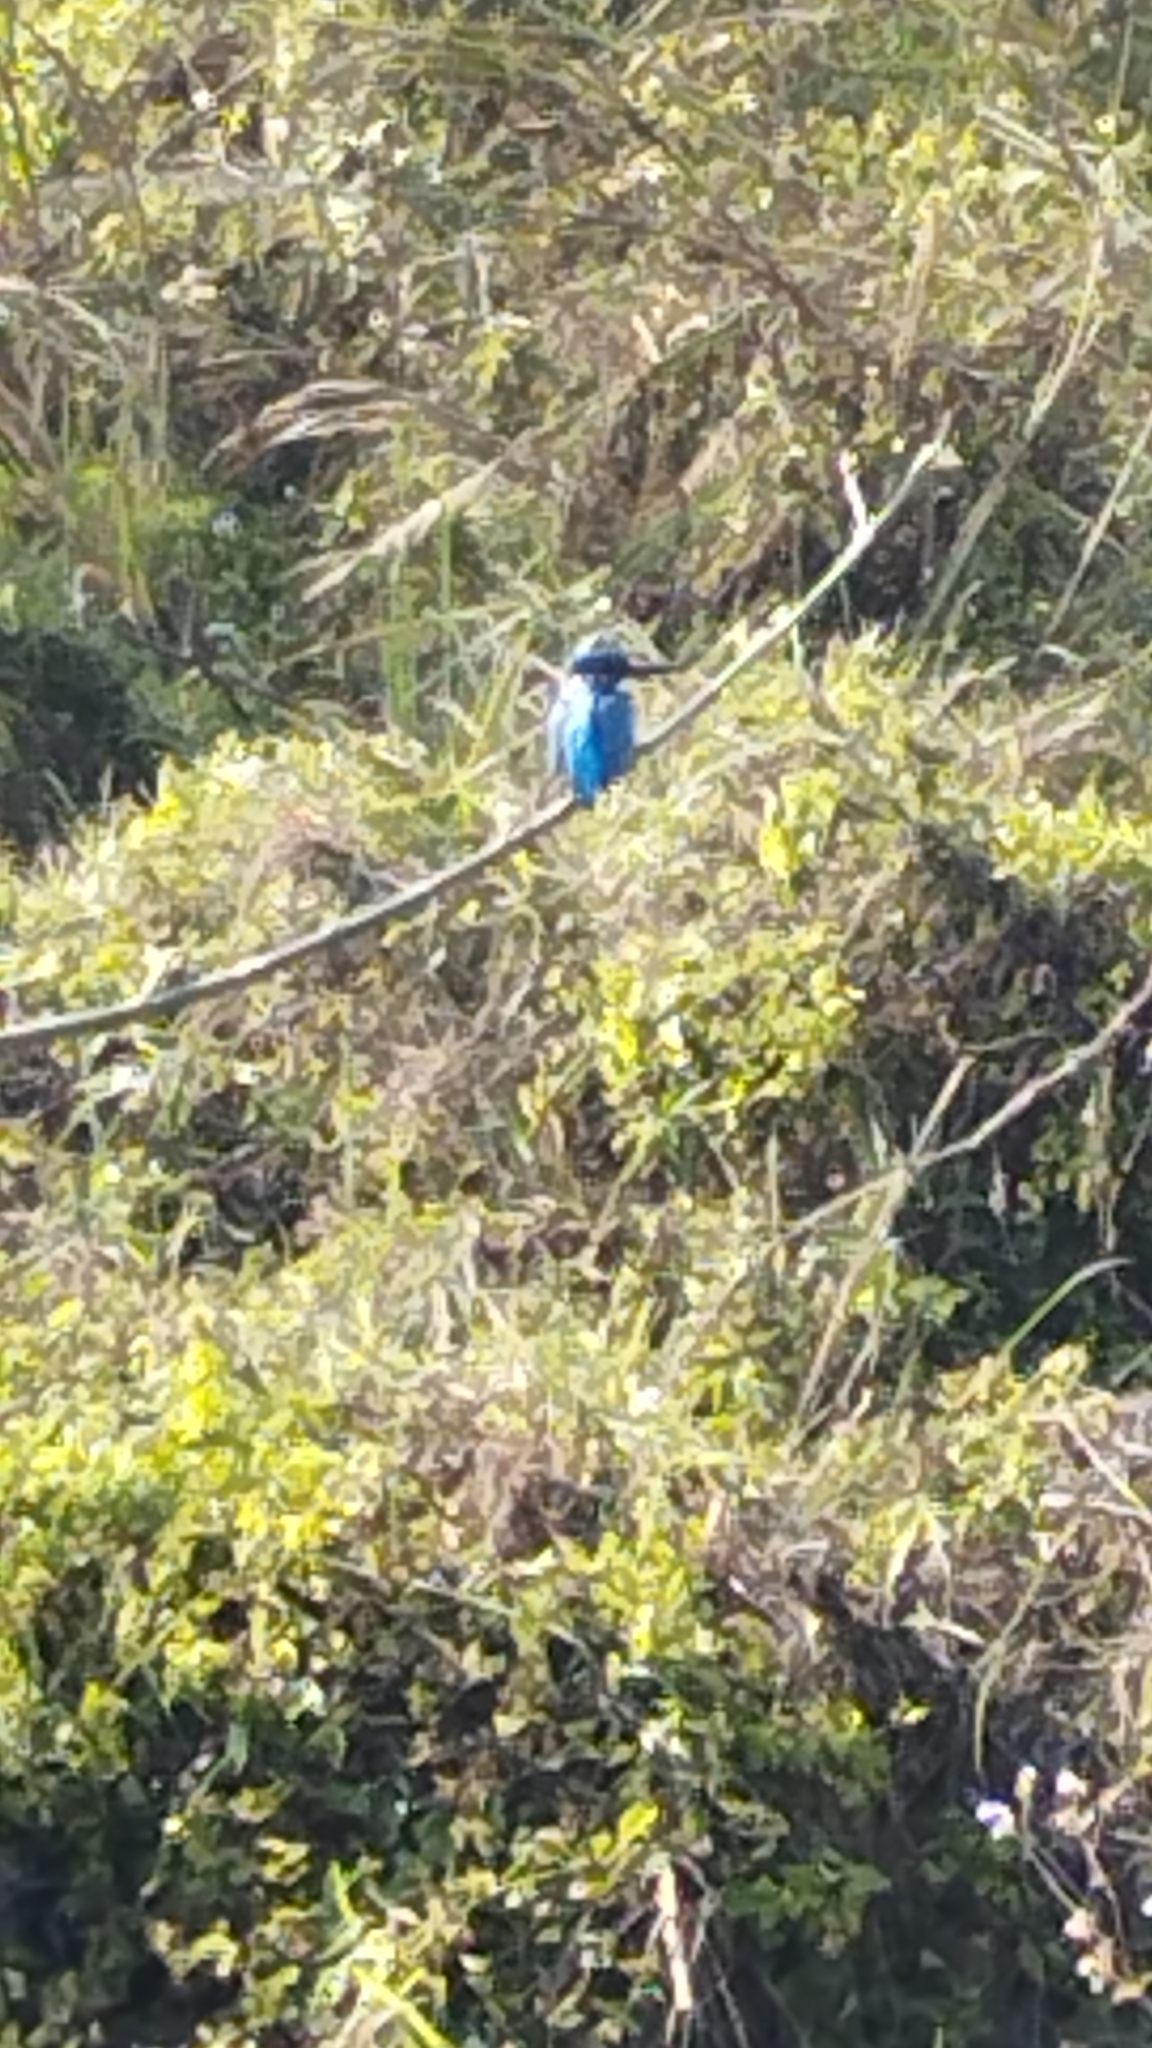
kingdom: Animalia
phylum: Chordata
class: Aves
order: Coraciiformes
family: Alcedinidae
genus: Alcedo
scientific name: Alcedo atthis
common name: Common kingfisher
